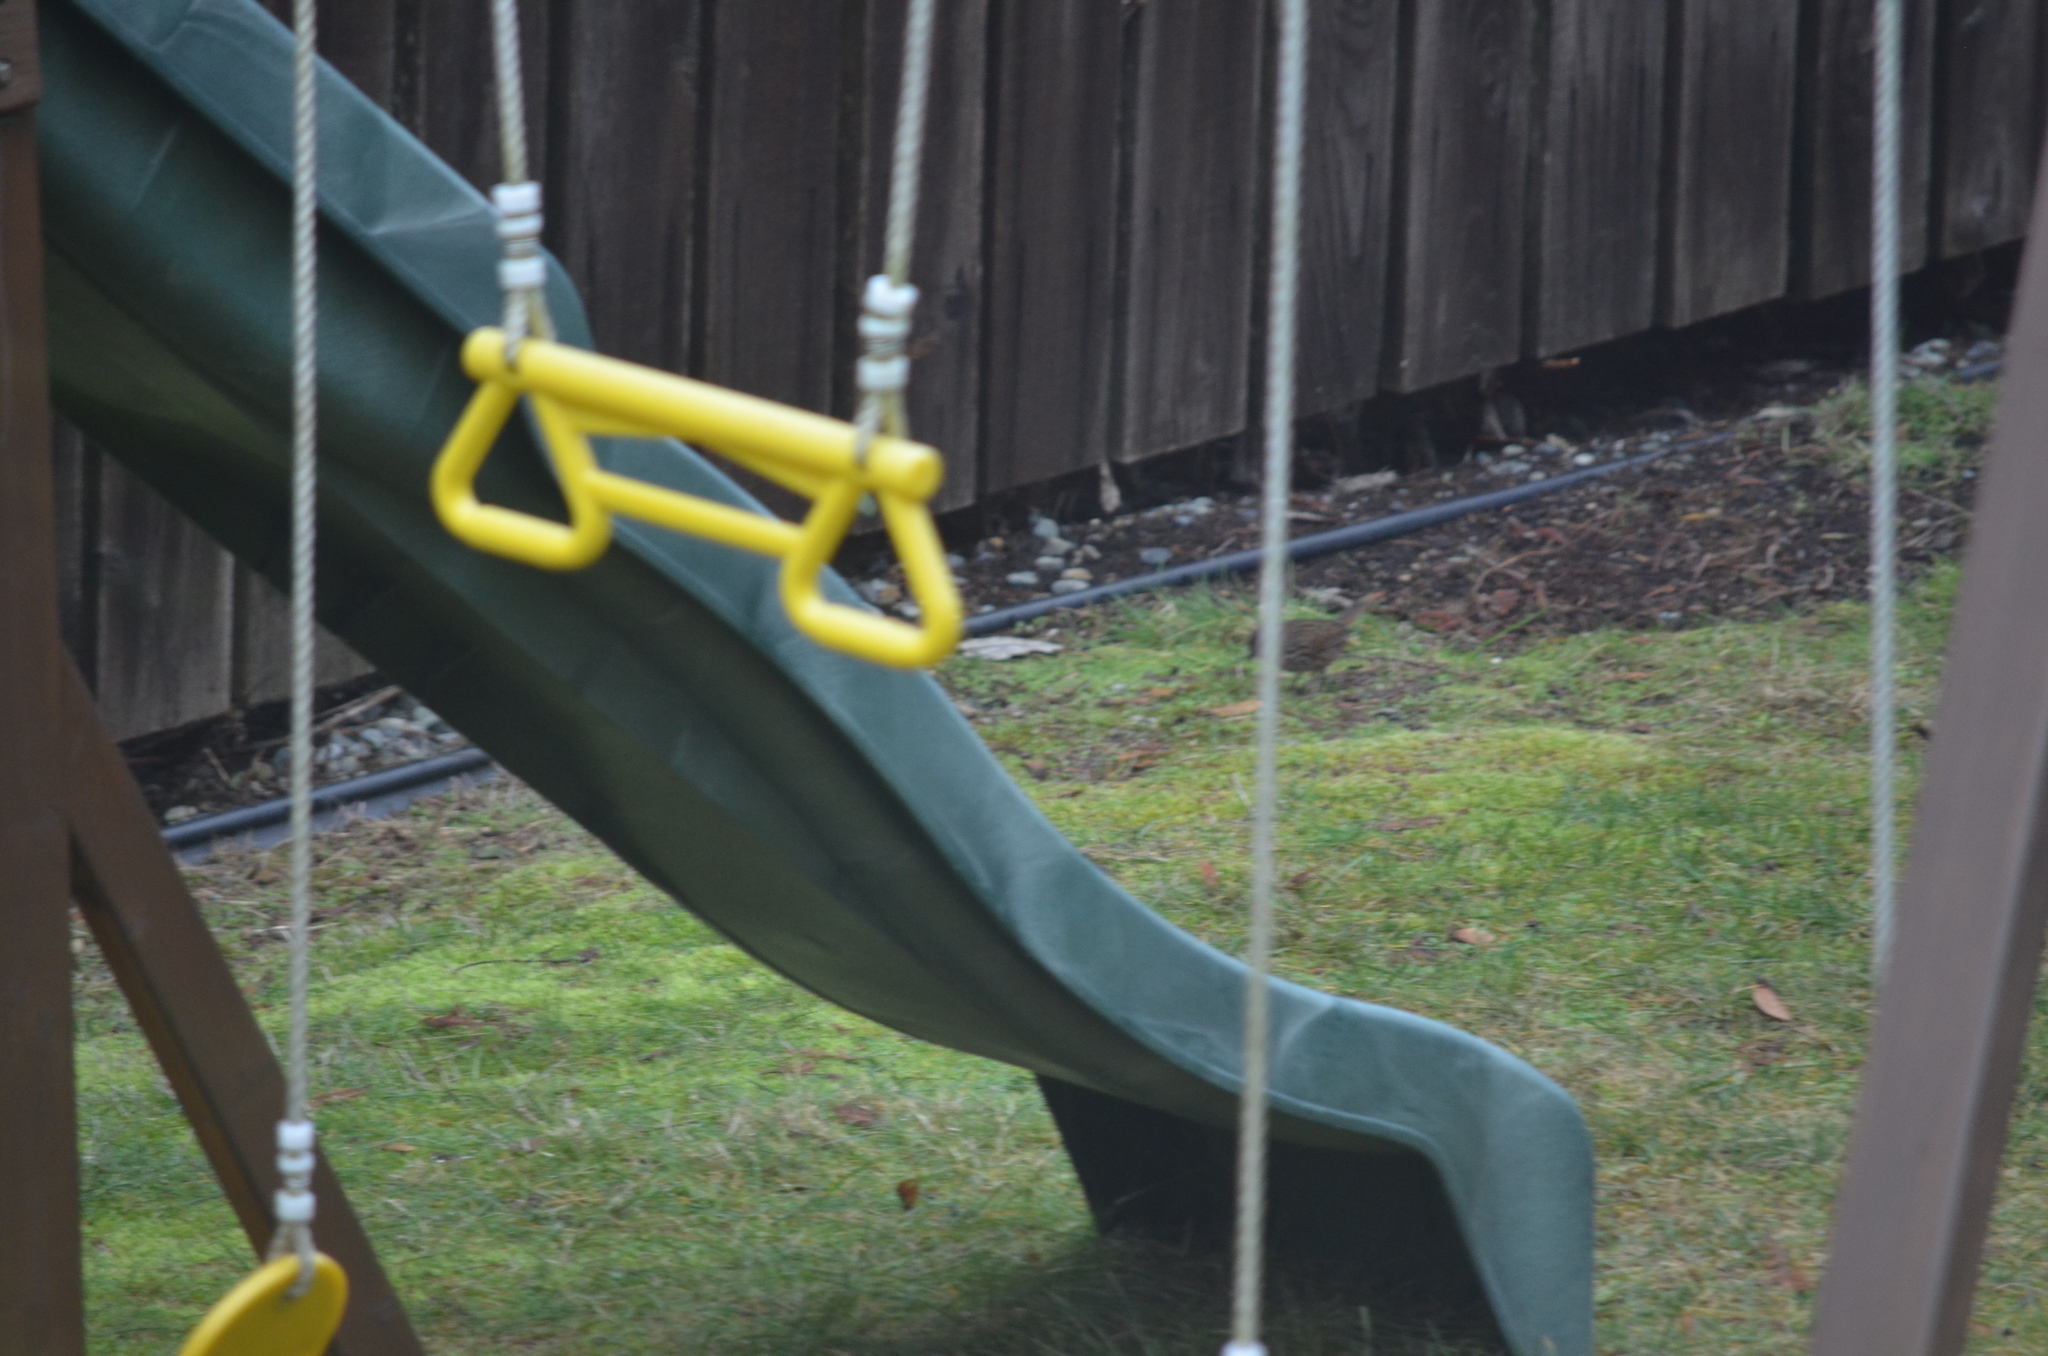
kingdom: Animalia
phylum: Chordata
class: Aves
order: Passeriformes
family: Passerellidae
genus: Melospiza
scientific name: Melospiza melodia
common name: Song sparrow
